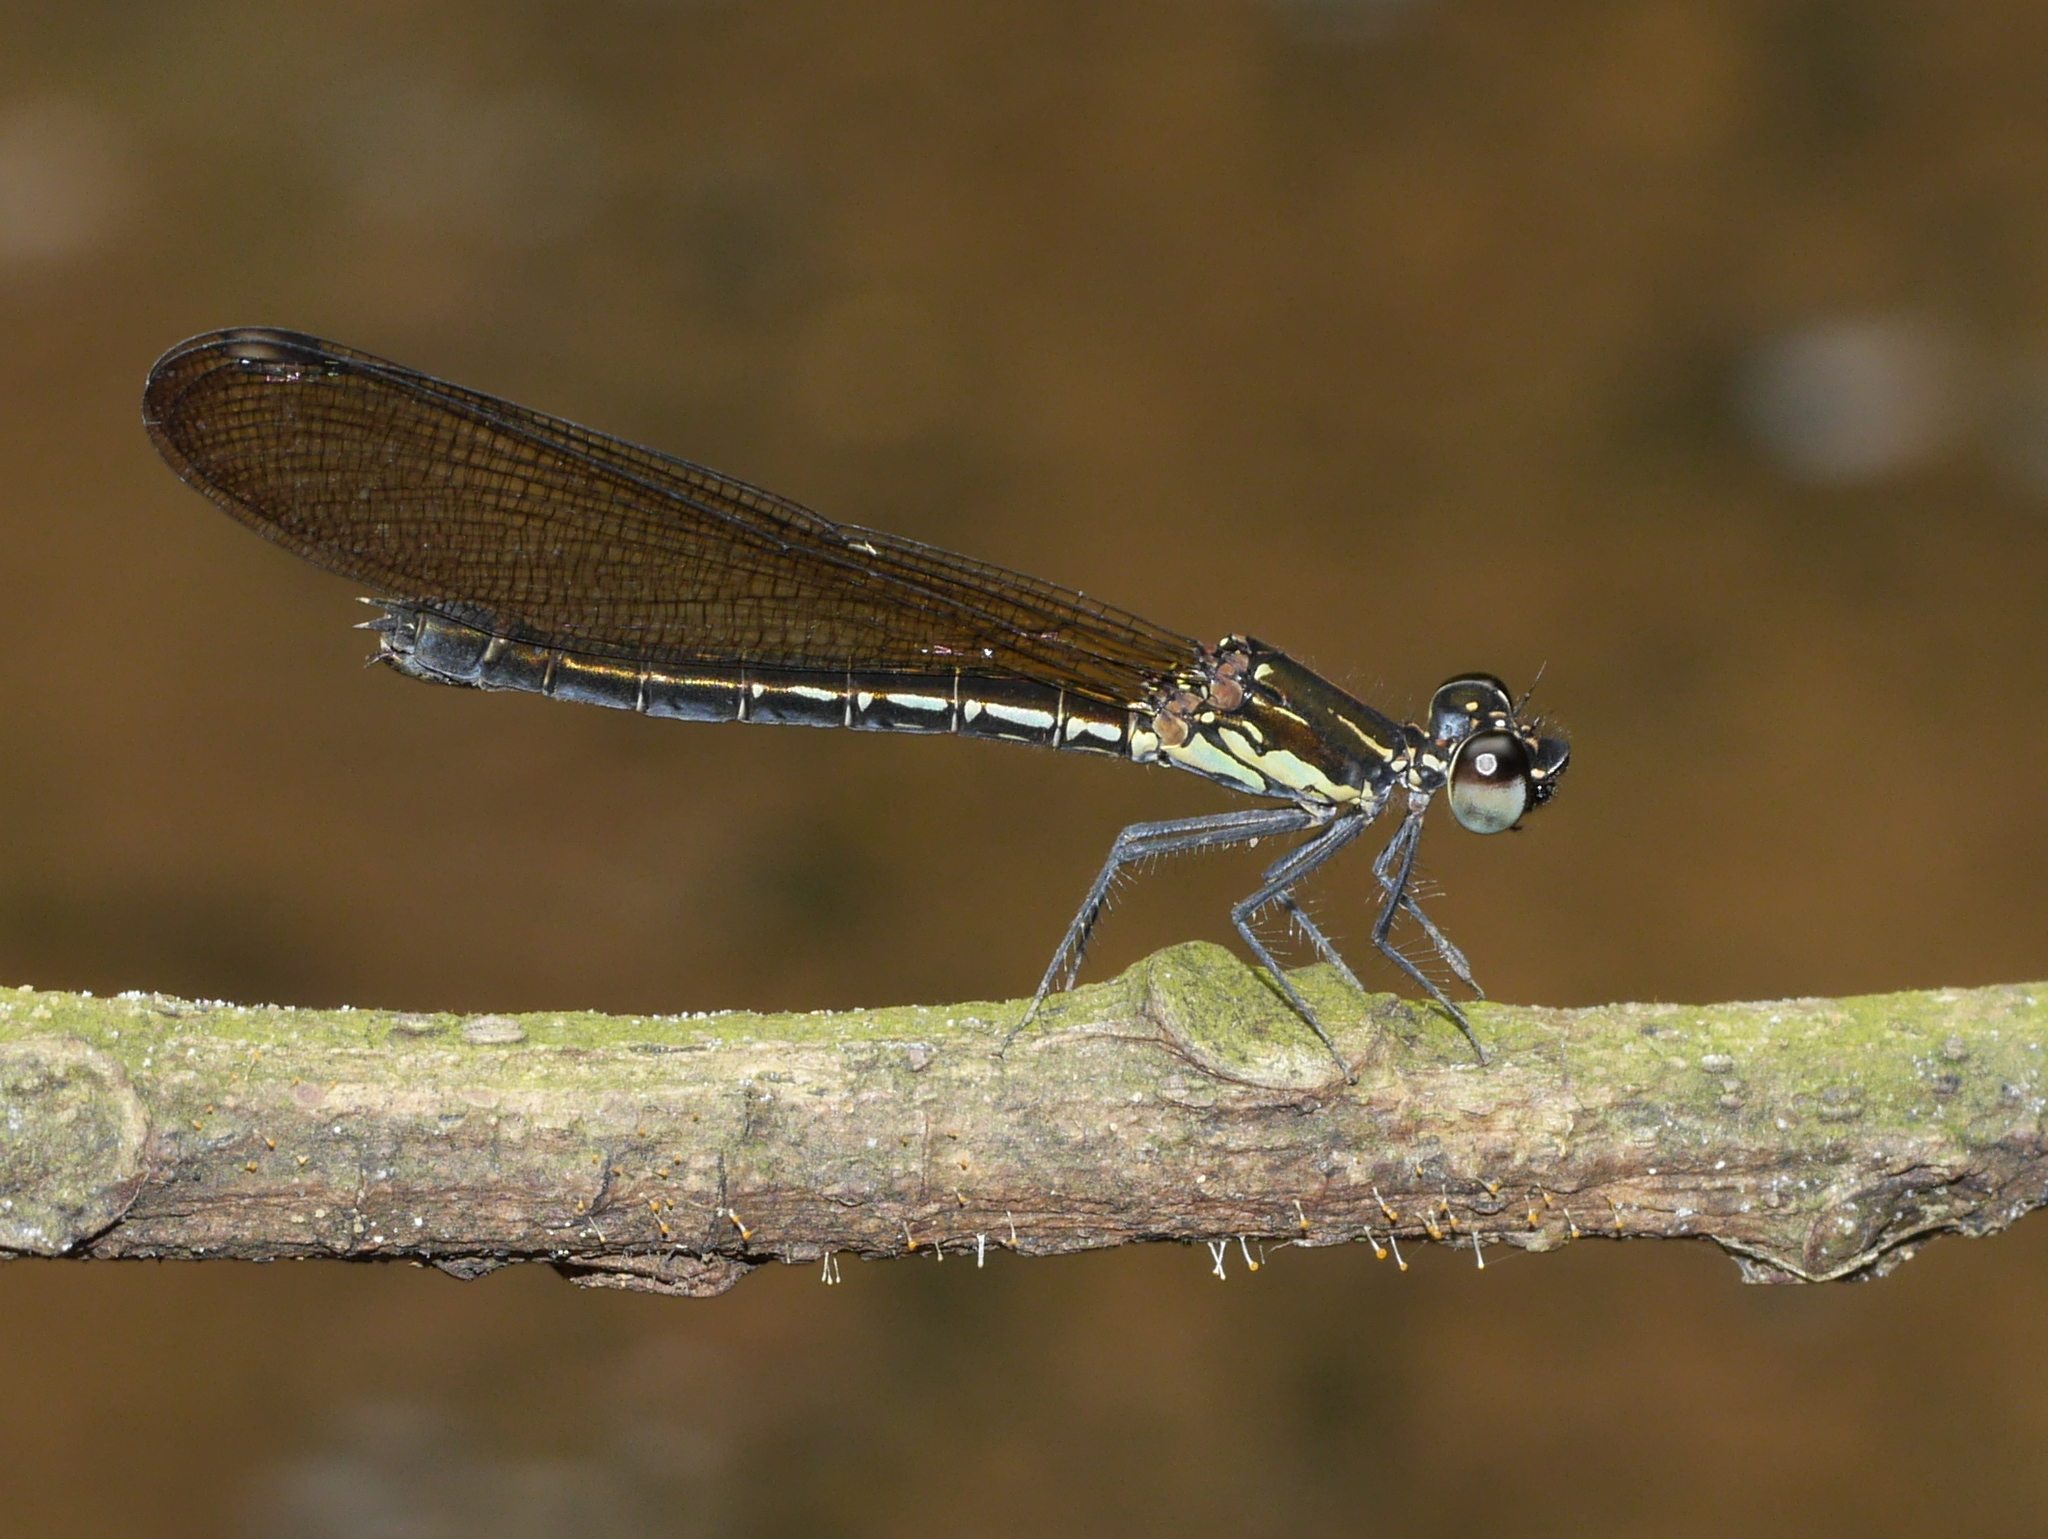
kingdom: Animalia
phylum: Arthropoda
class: Insecta
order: Odonata
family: Chlorocyphidae
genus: Heliocypha
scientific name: Heliocypha fenestrata
